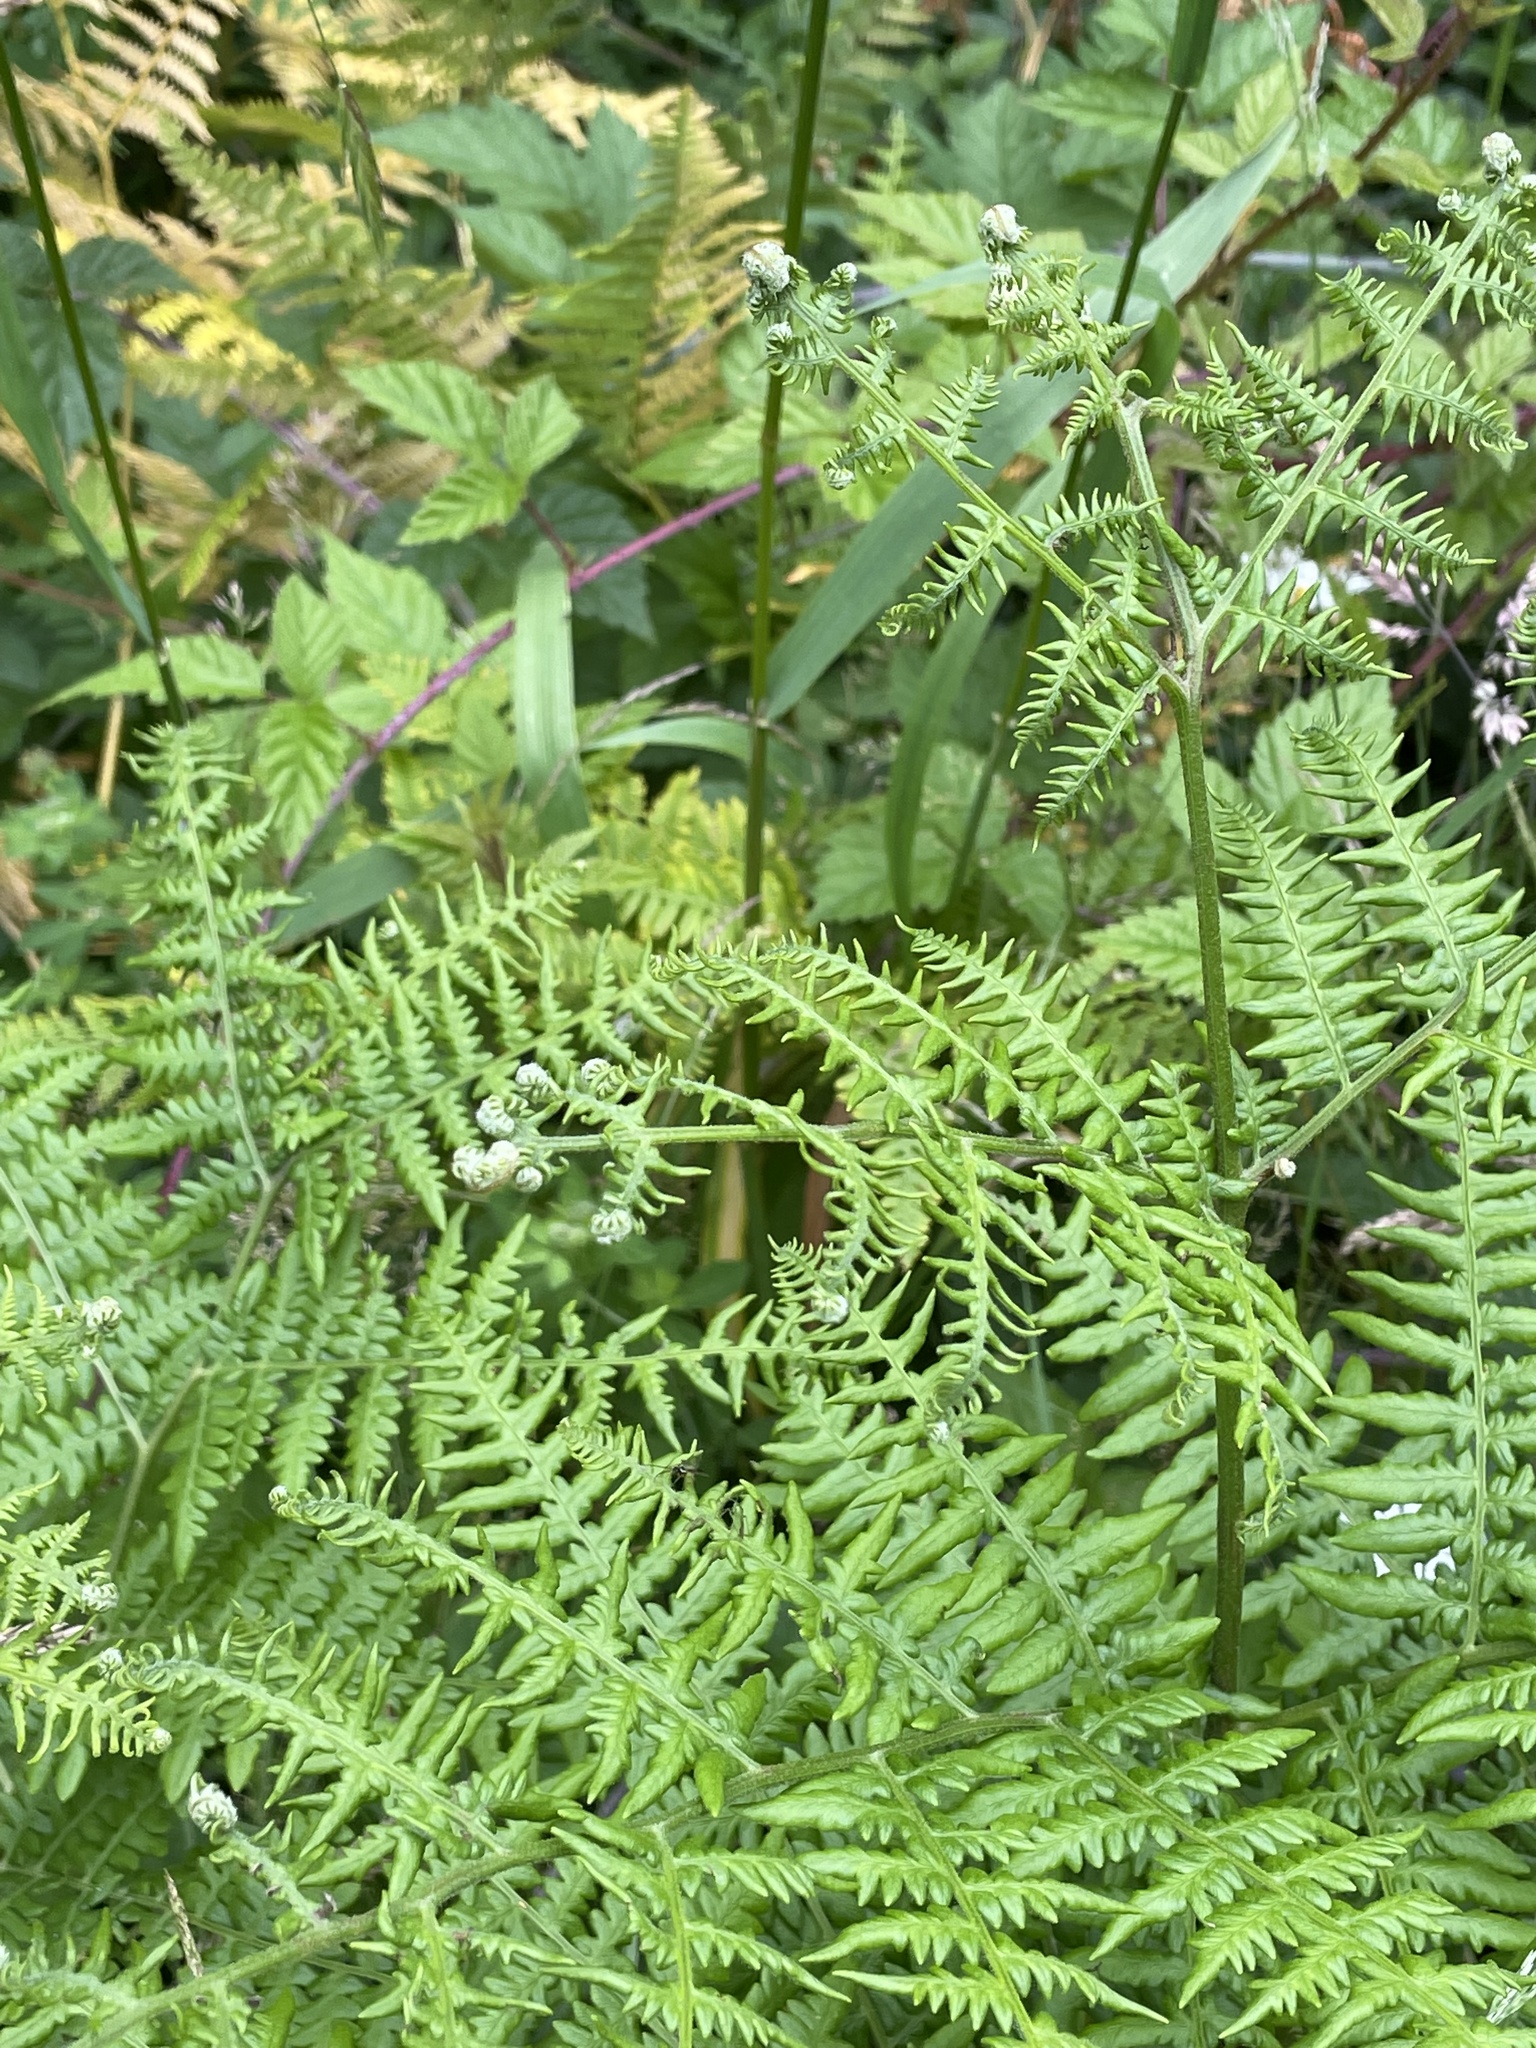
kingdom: Plantae
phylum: Tracheophyta
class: Polypodiopsida
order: Polypodiales
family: Dennstaedtiaceae
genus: Pteridium
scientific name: Pteridium aquilinum
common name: Bracken
